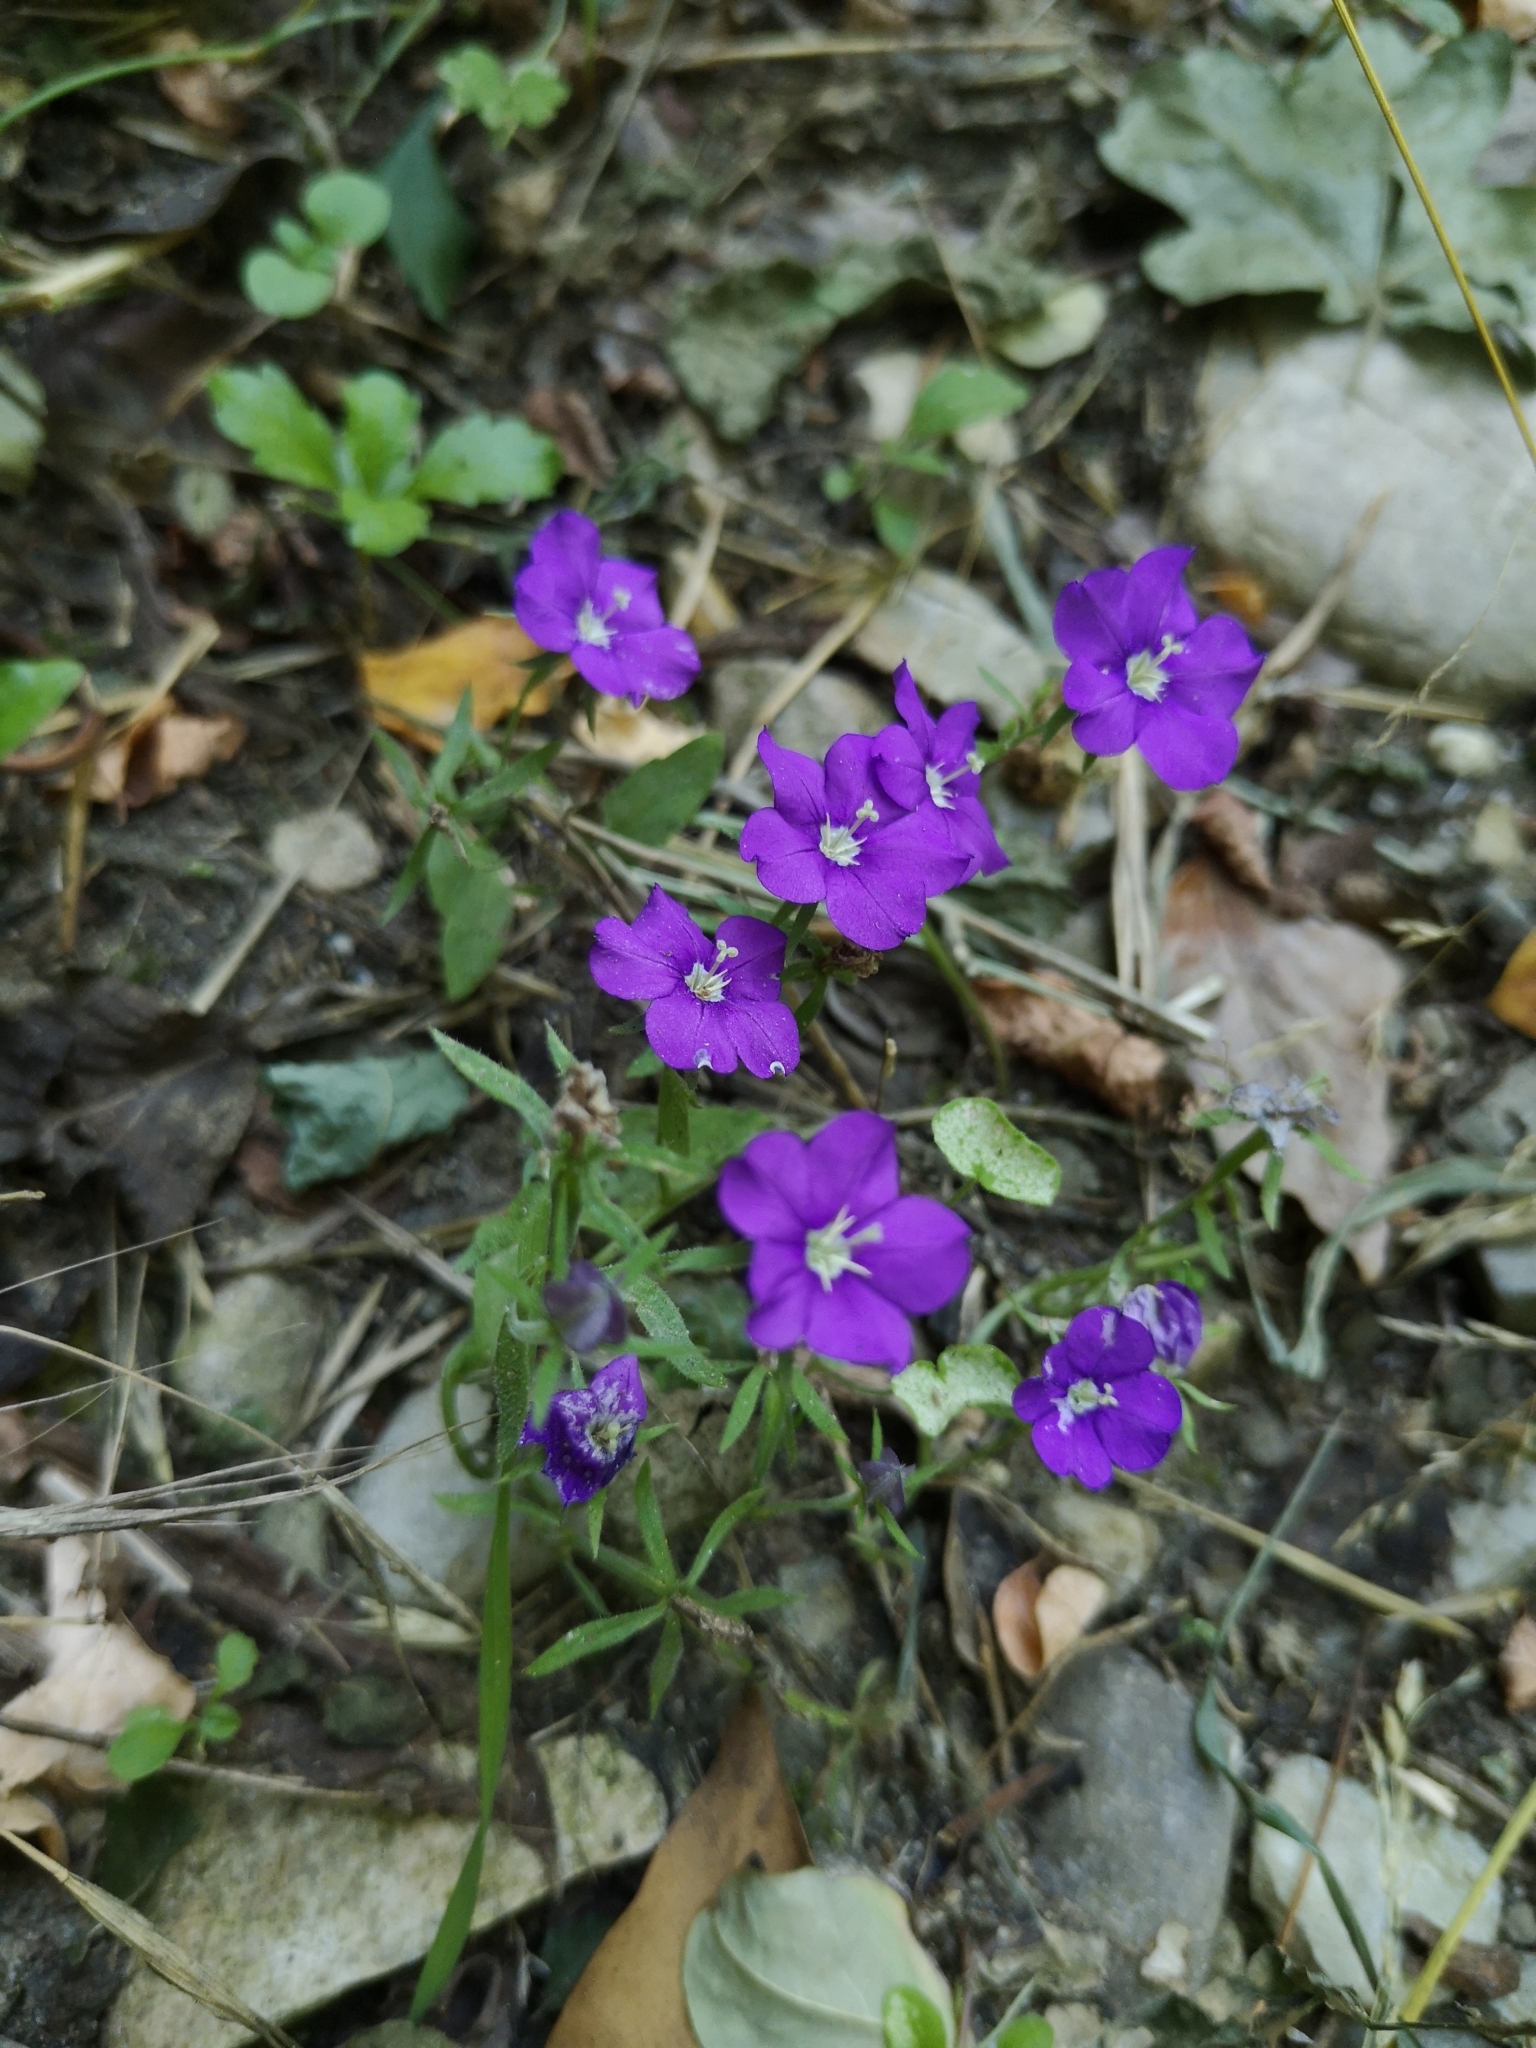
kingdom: Plantae
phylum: Tracheophyta
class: Magnoliopsida
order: Asterales
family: Campanulaceae
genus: Legousia
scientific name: Legousia speculum-veneris
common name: Large venus's-looking-glass
